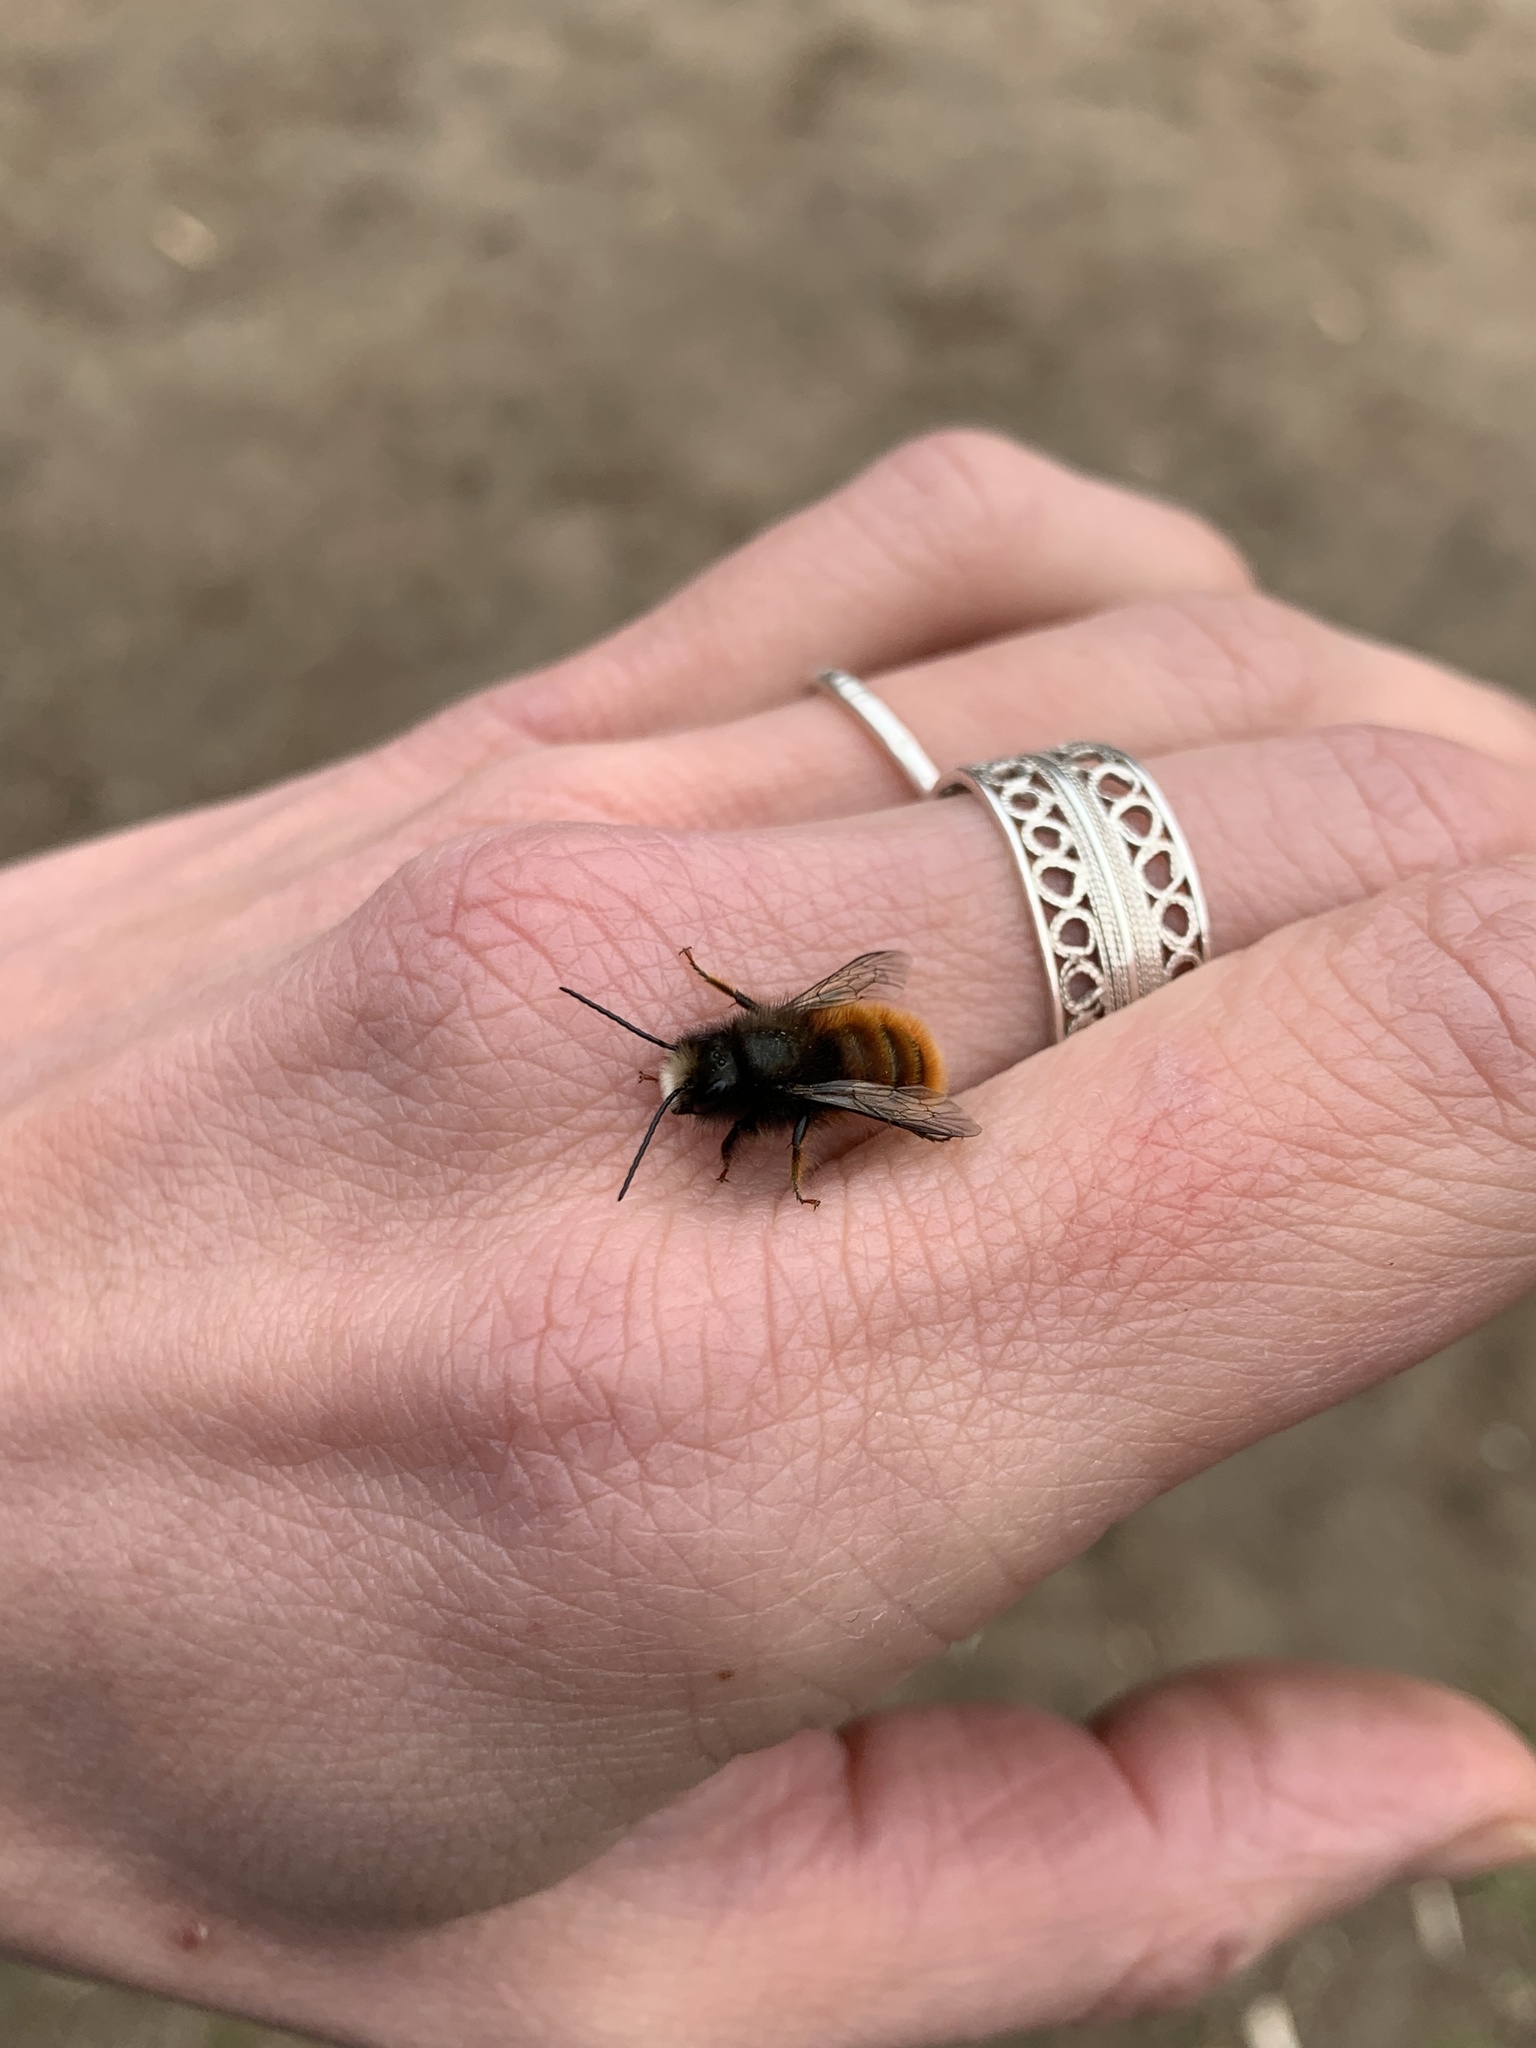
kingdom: Animalia
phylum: Arthropoda
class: Insecta
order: Hymenoptera
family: Megachilidae
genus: Osmia
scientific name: Osmia cornuta
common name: Mason bee
